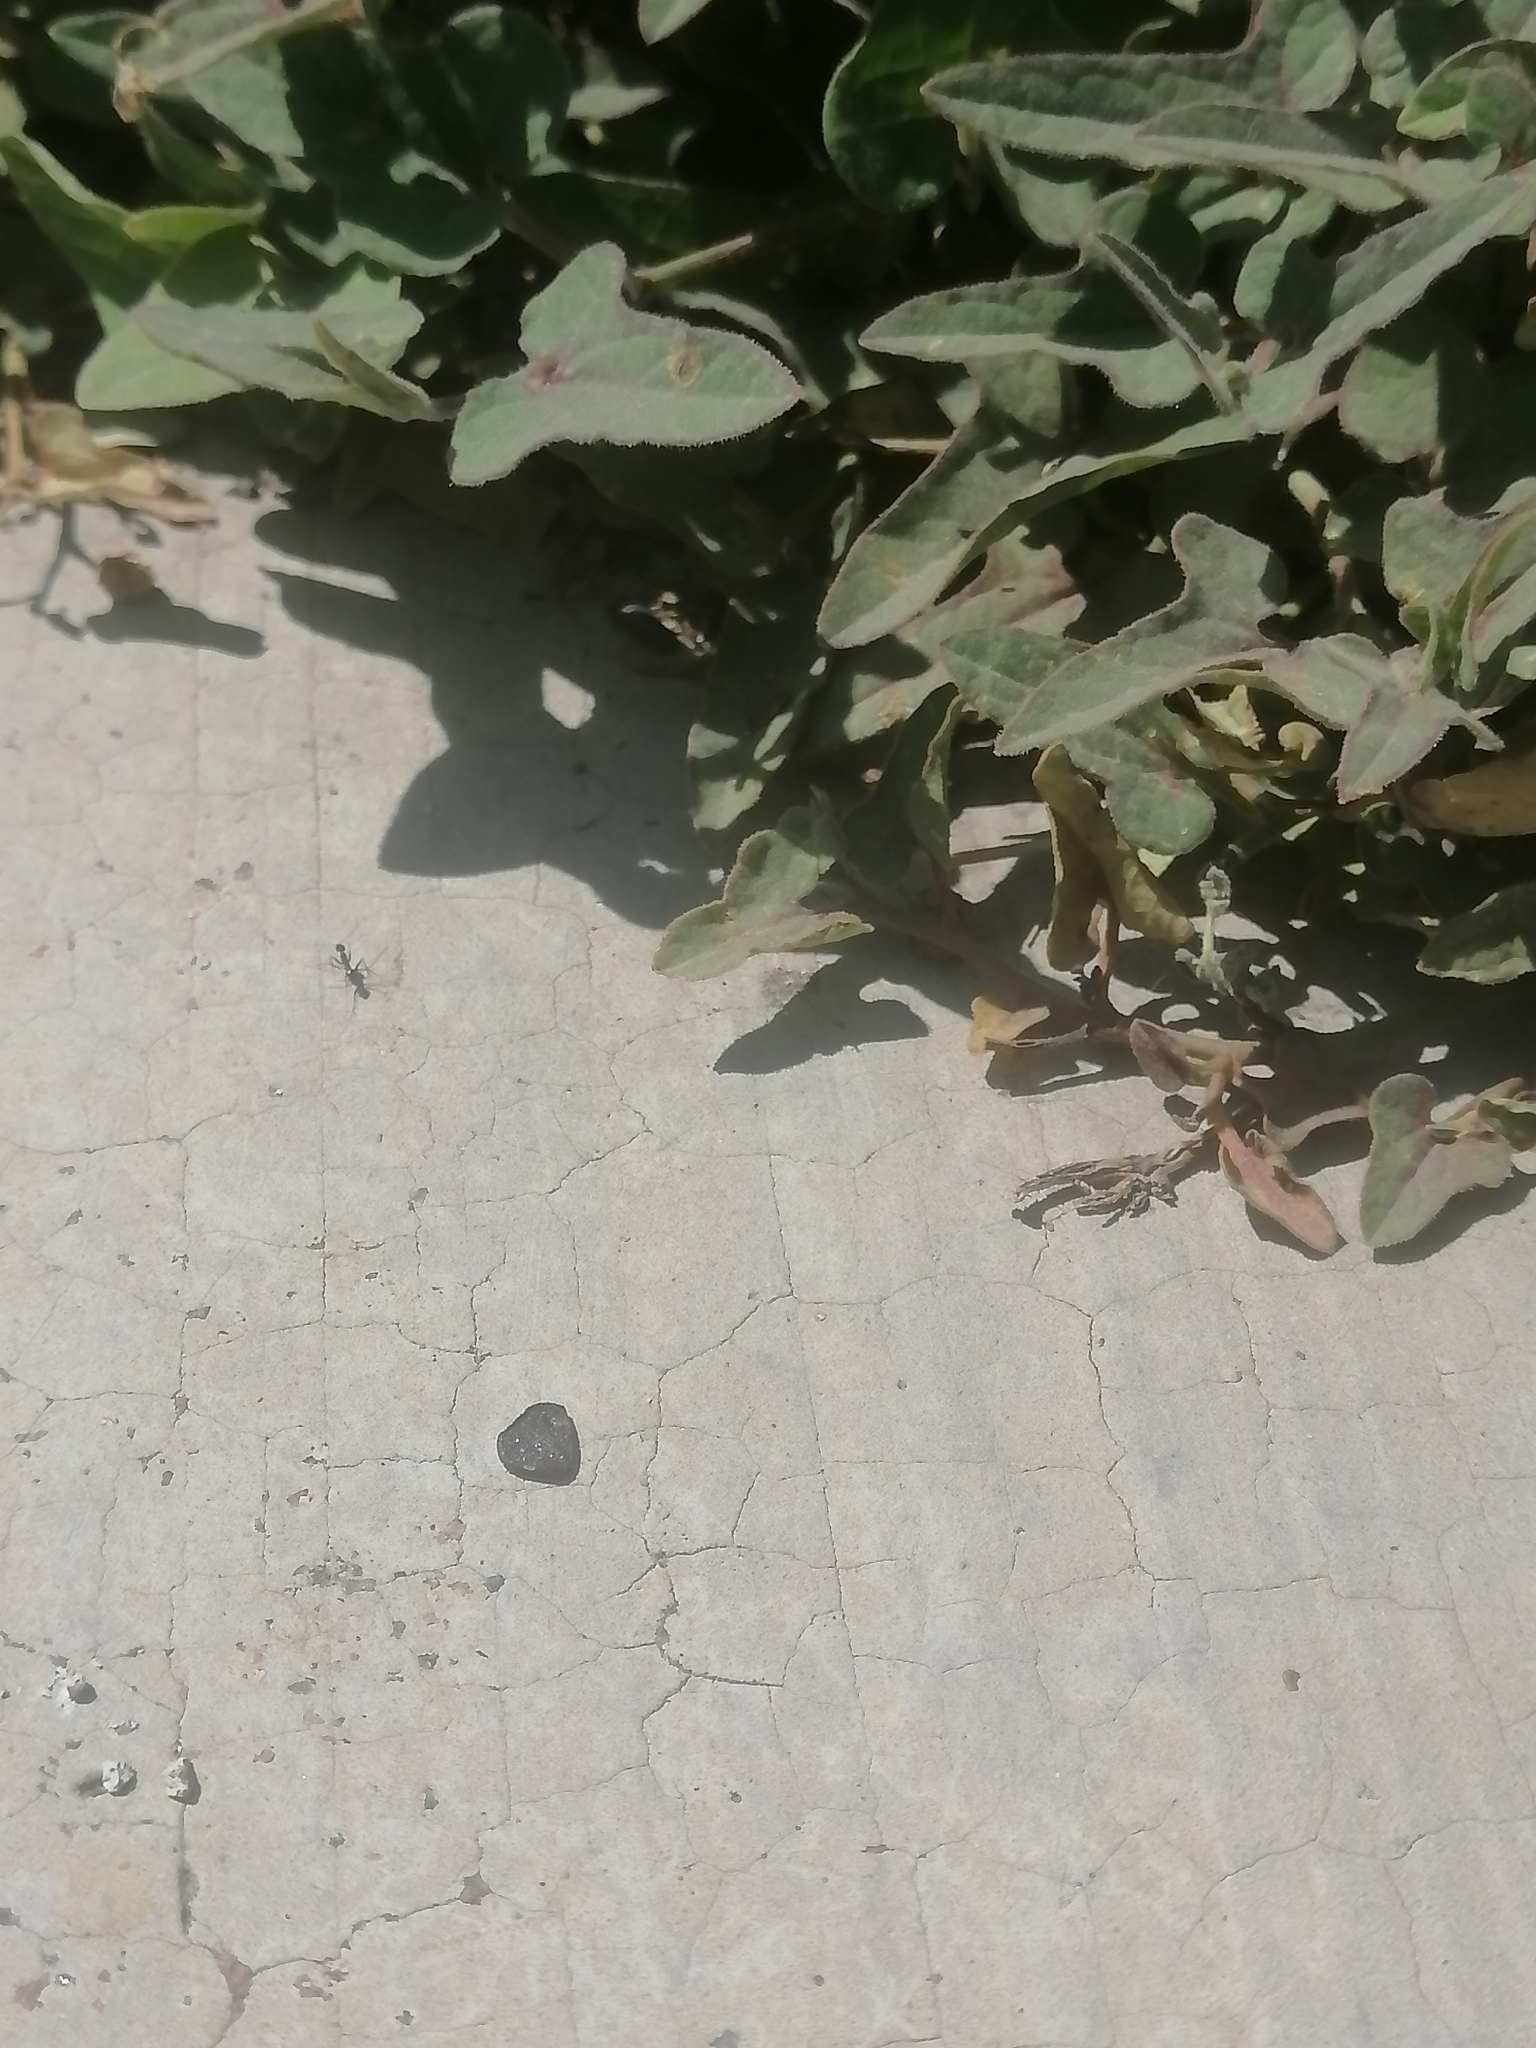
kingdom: Plantae
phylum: Tracheophyta
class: Magnoliopsida
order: Piperales
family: Aristolochiaceae
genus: Aristolochia
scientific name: Aristolochia versabilifolia
